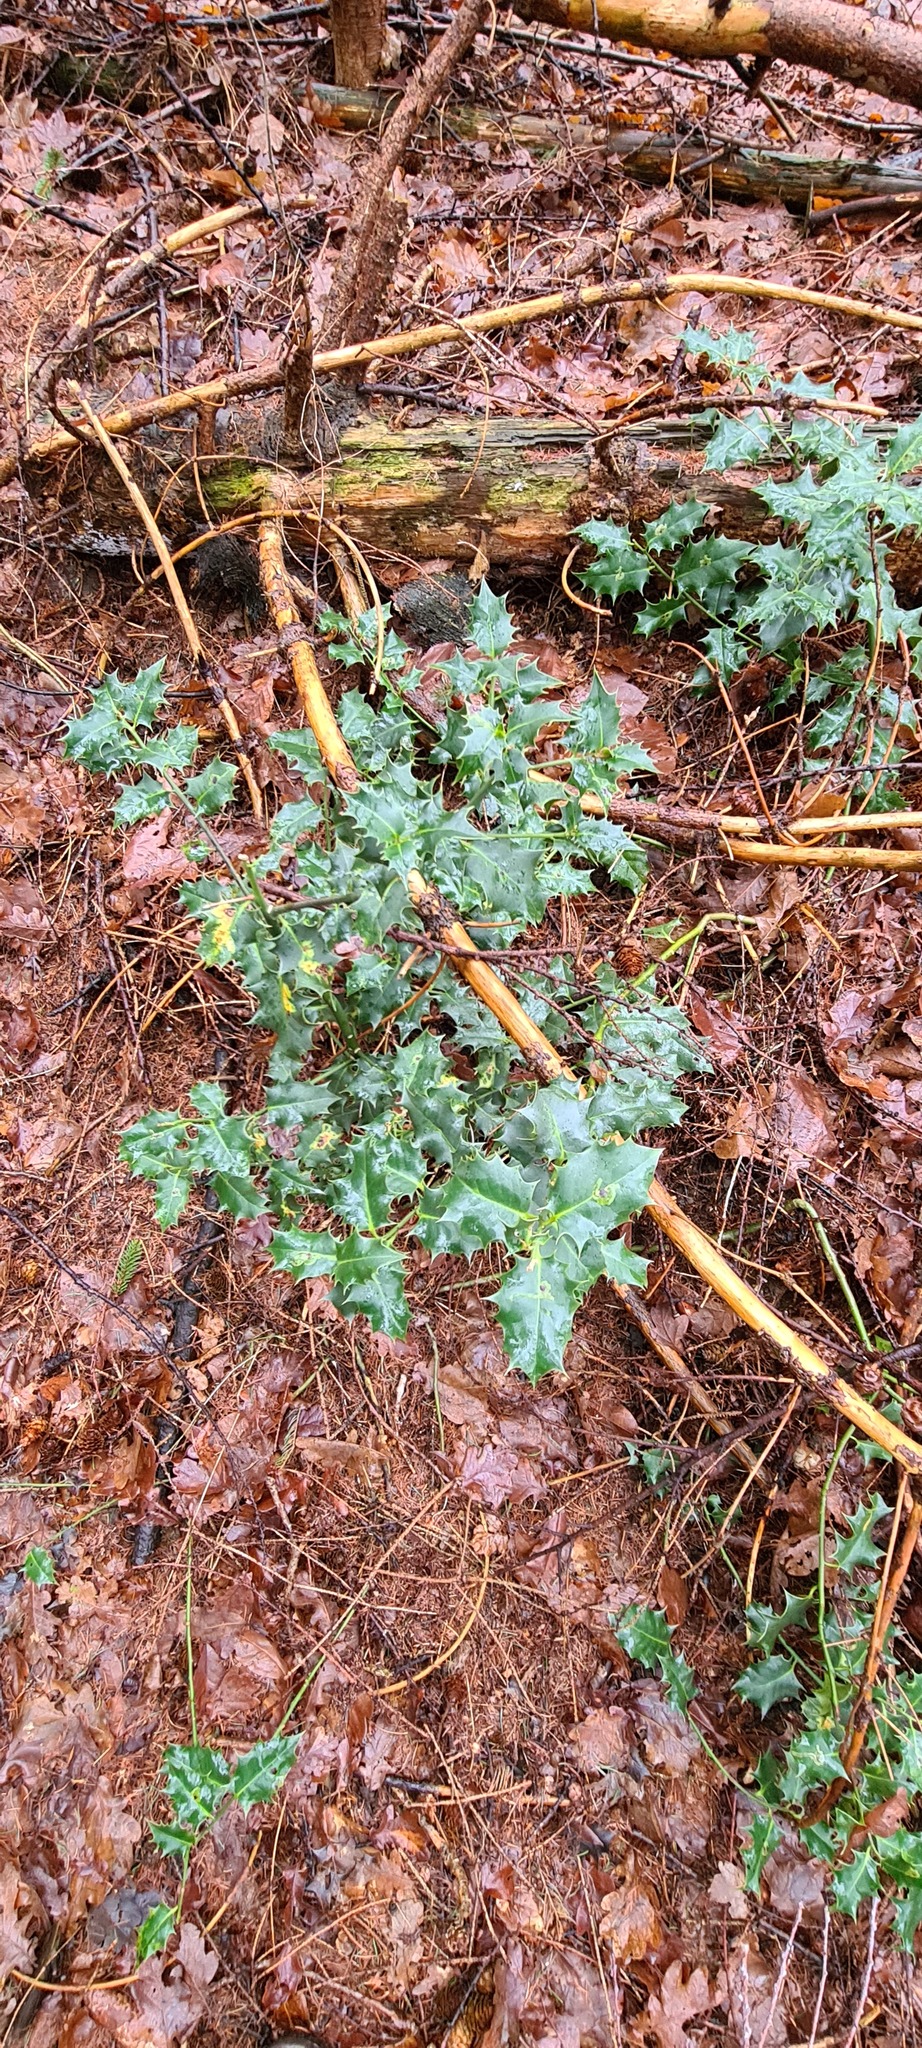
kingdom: Plantae
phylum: Tracheophyta
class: Magnoliopsida
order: Aquifoliales
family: Aquifoliaceae
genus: Ilex
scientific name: Ilex aquifolium
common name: English holly
